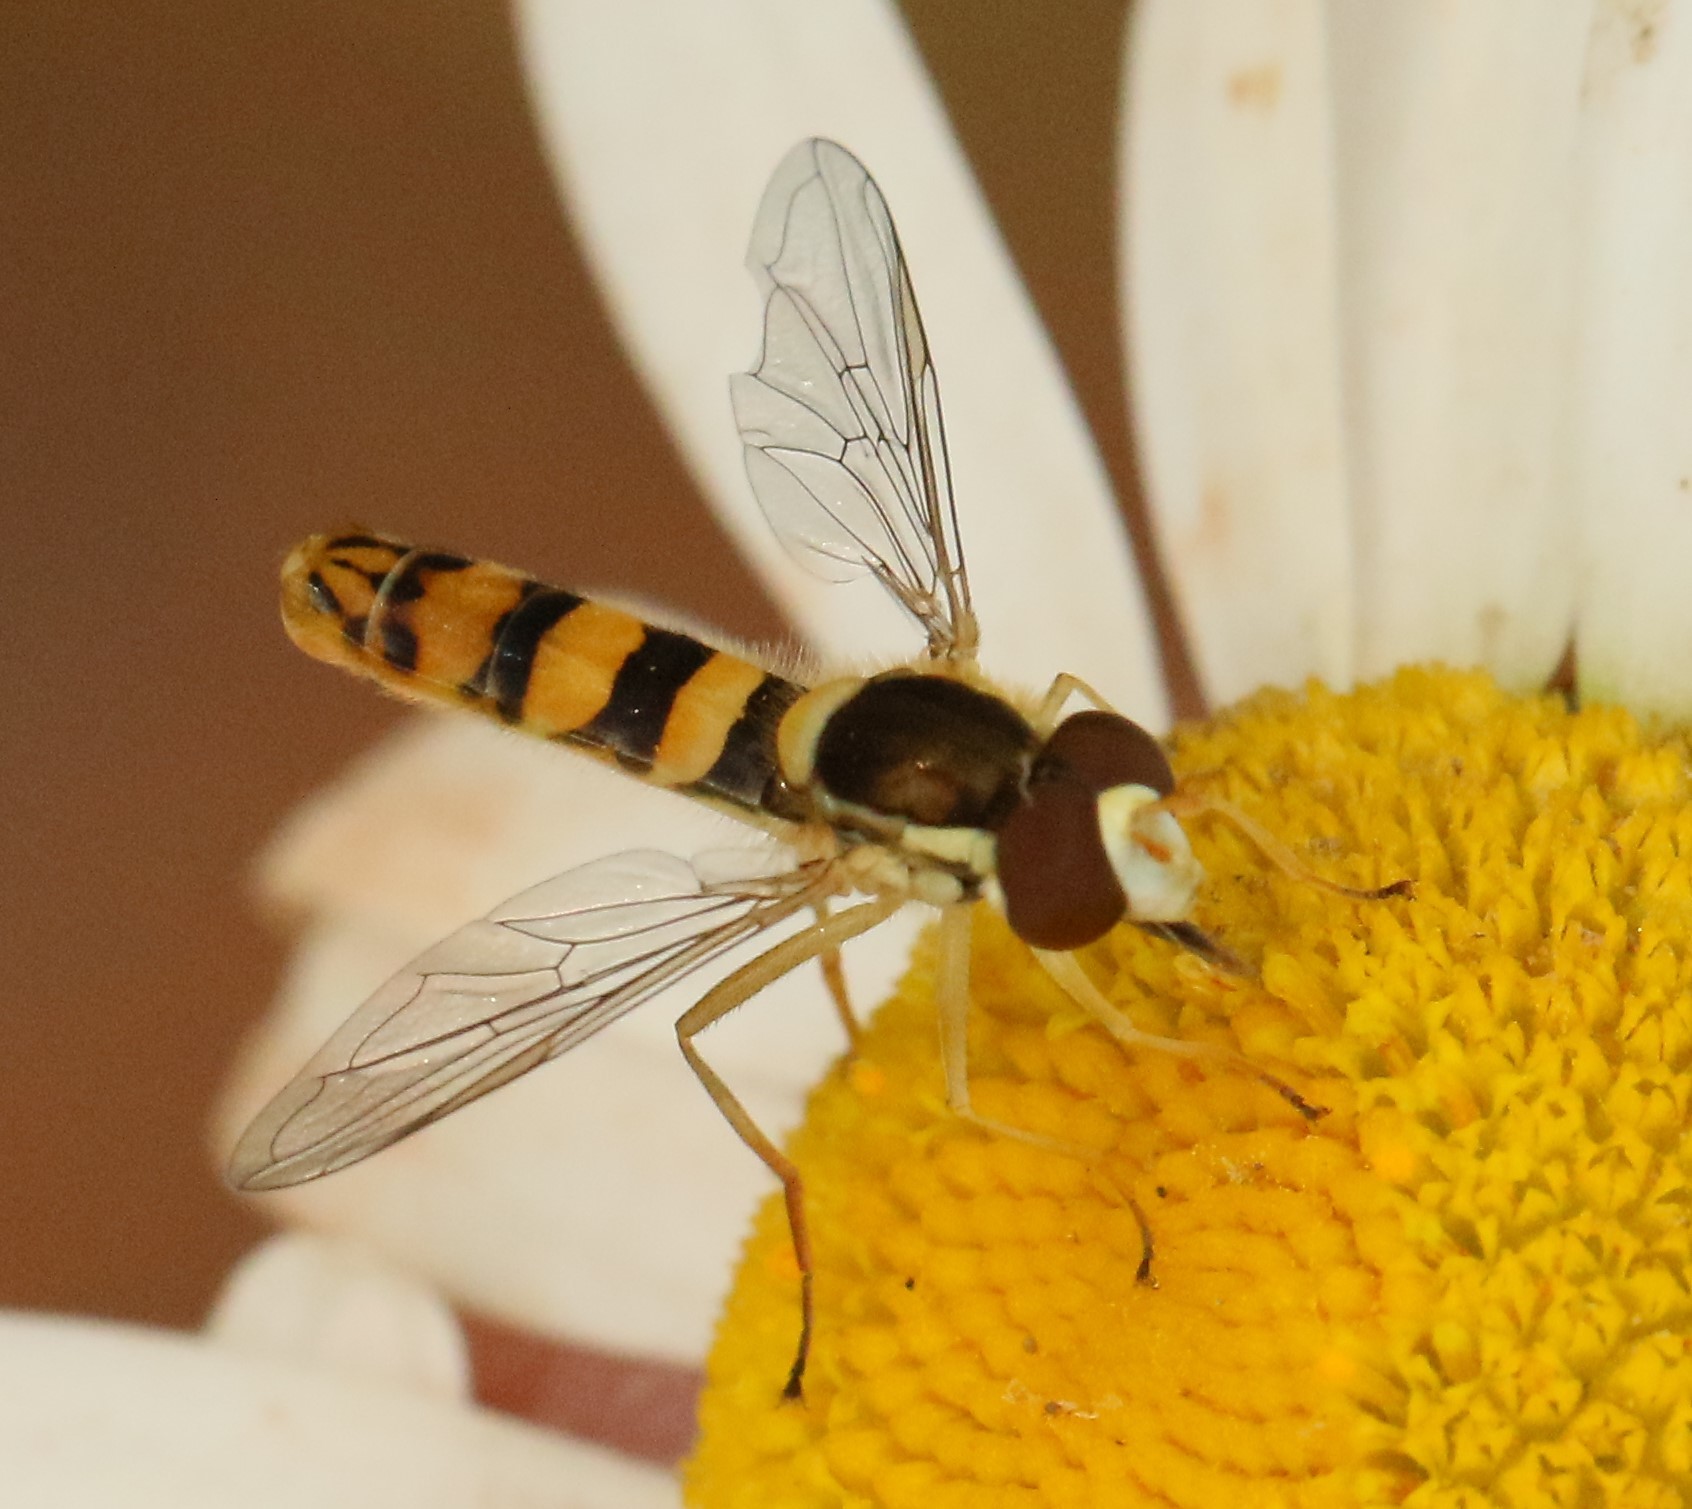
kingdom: Animalia
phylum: Arthropoda
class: Insecta
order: Diptera
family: Syrphidae
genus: Sphaerophoria
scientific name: Sphaerophoria philantha
